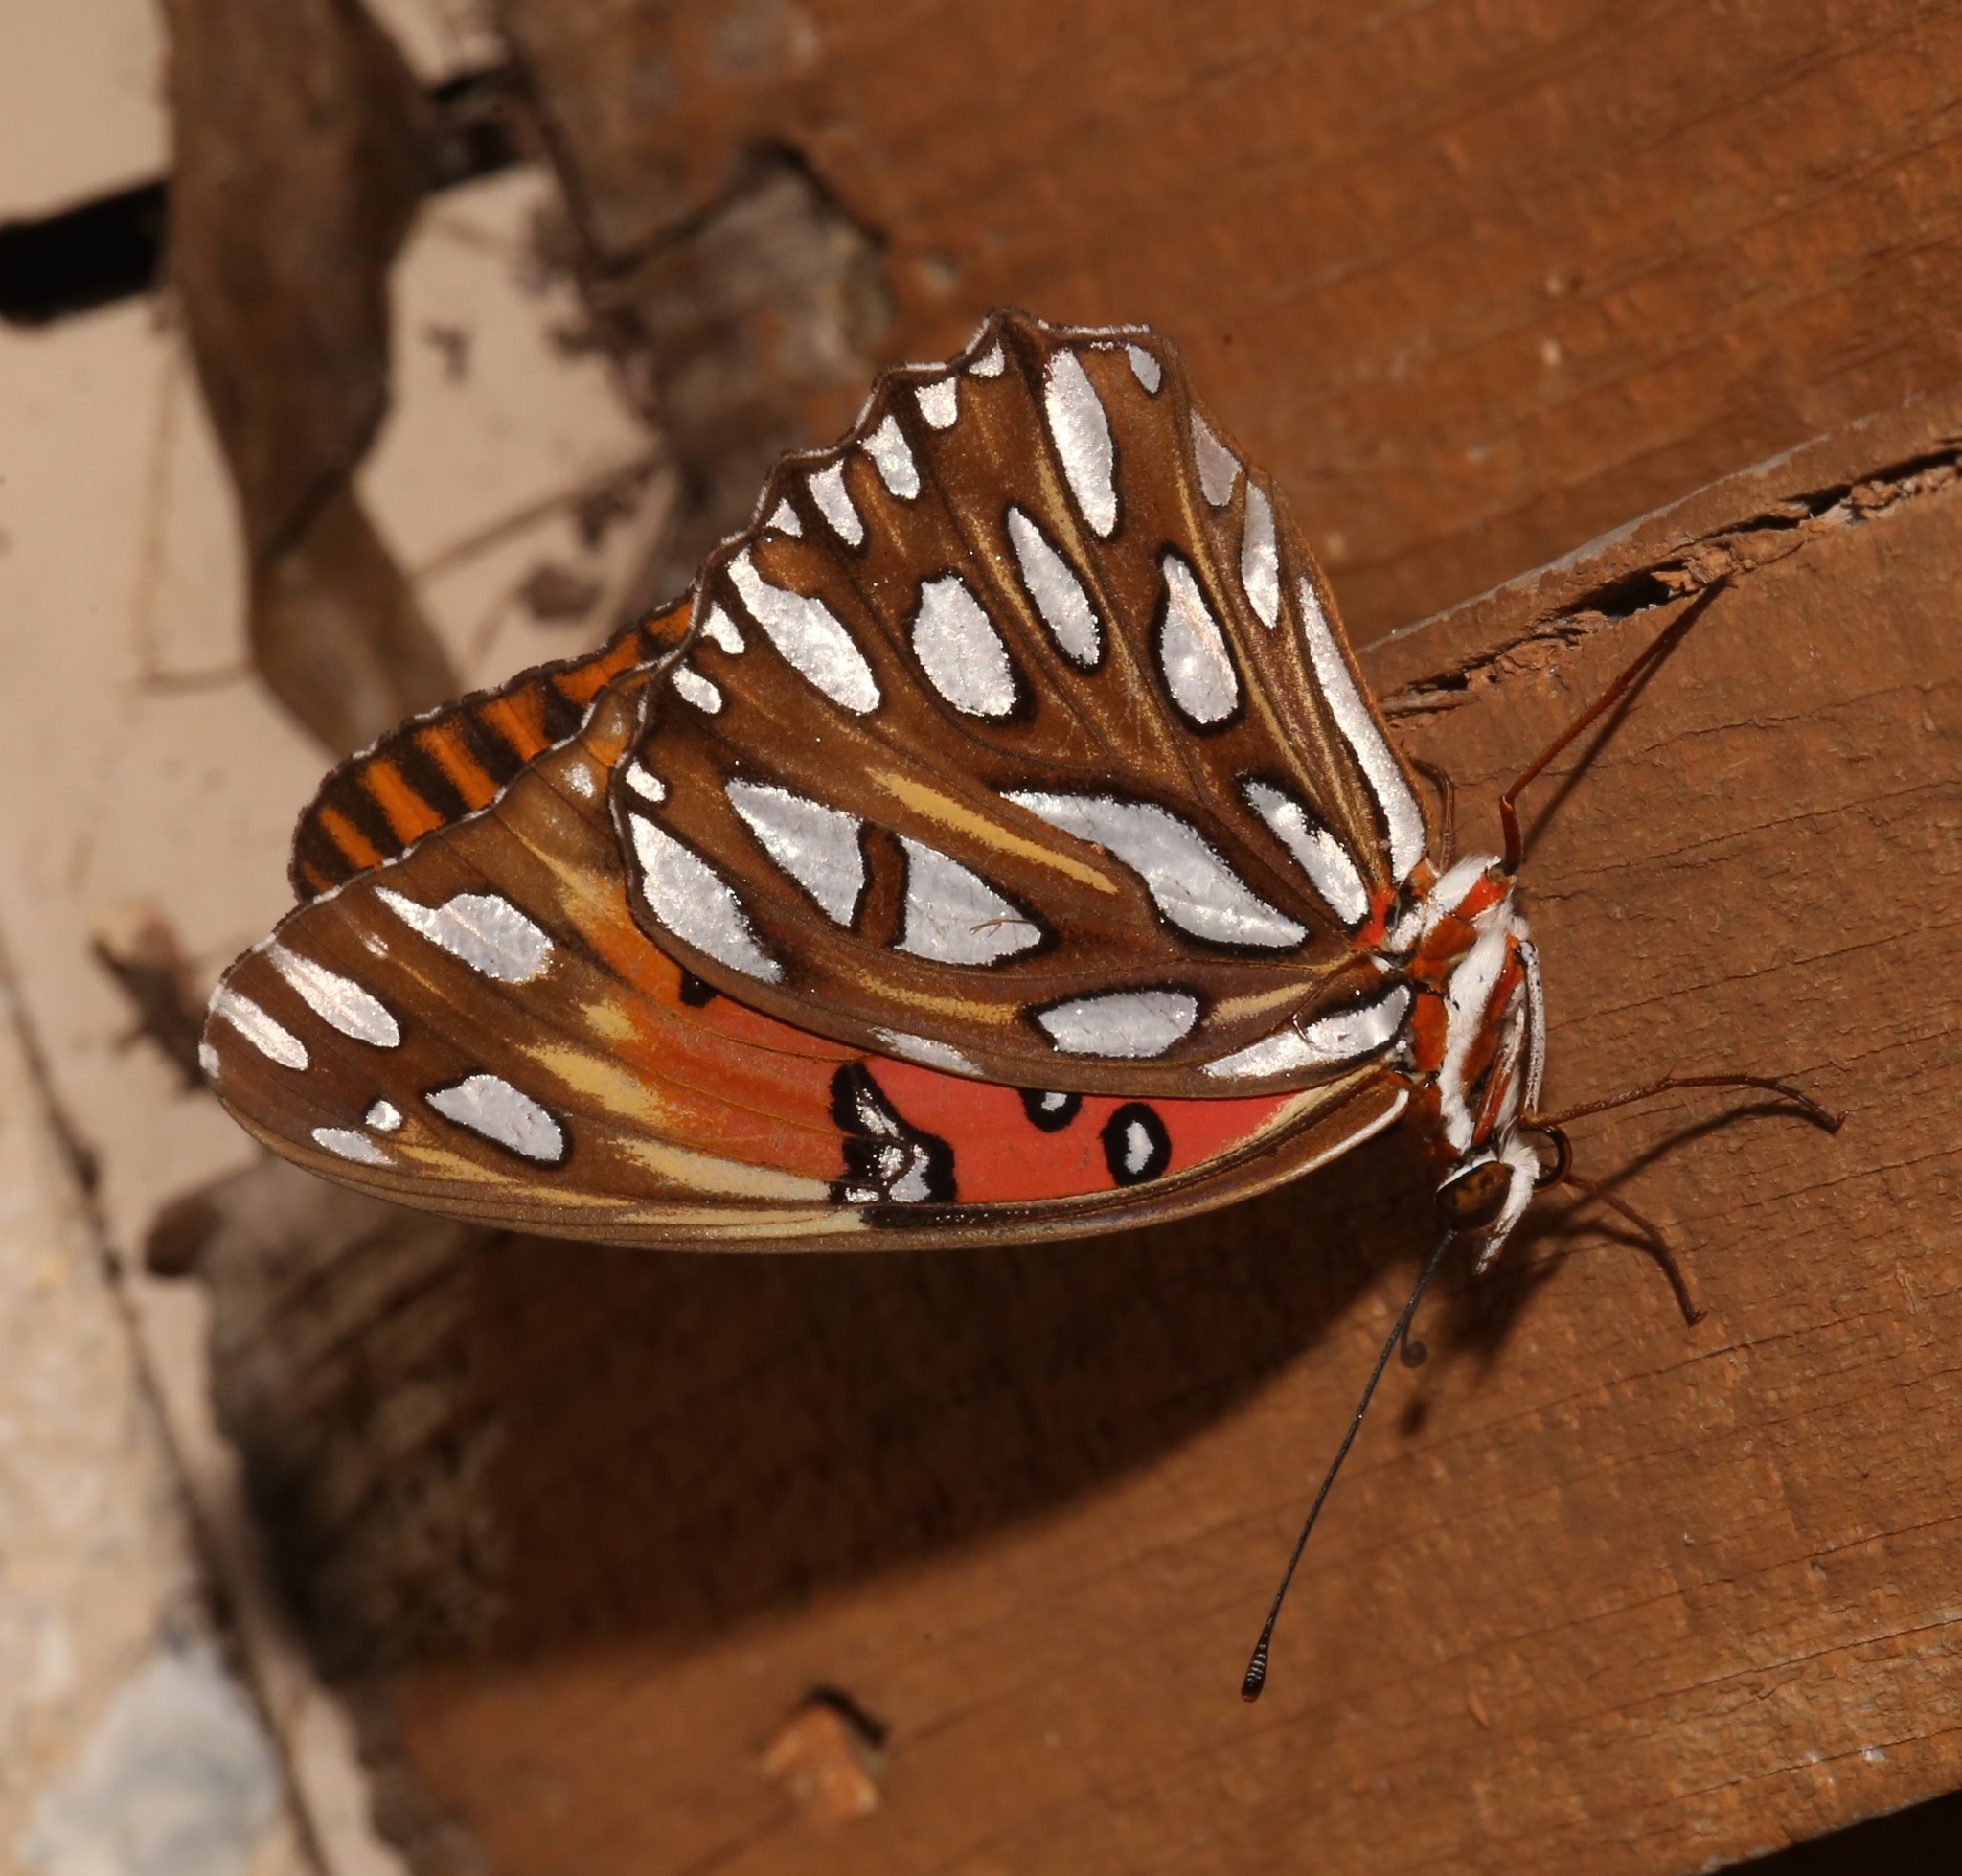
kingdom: Animalia
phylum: Arthropoda
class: Insecta
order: Lepidoptera
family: Nymphalidae
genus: Dione
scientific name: Dione vanillae
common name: Gulf fritillary
